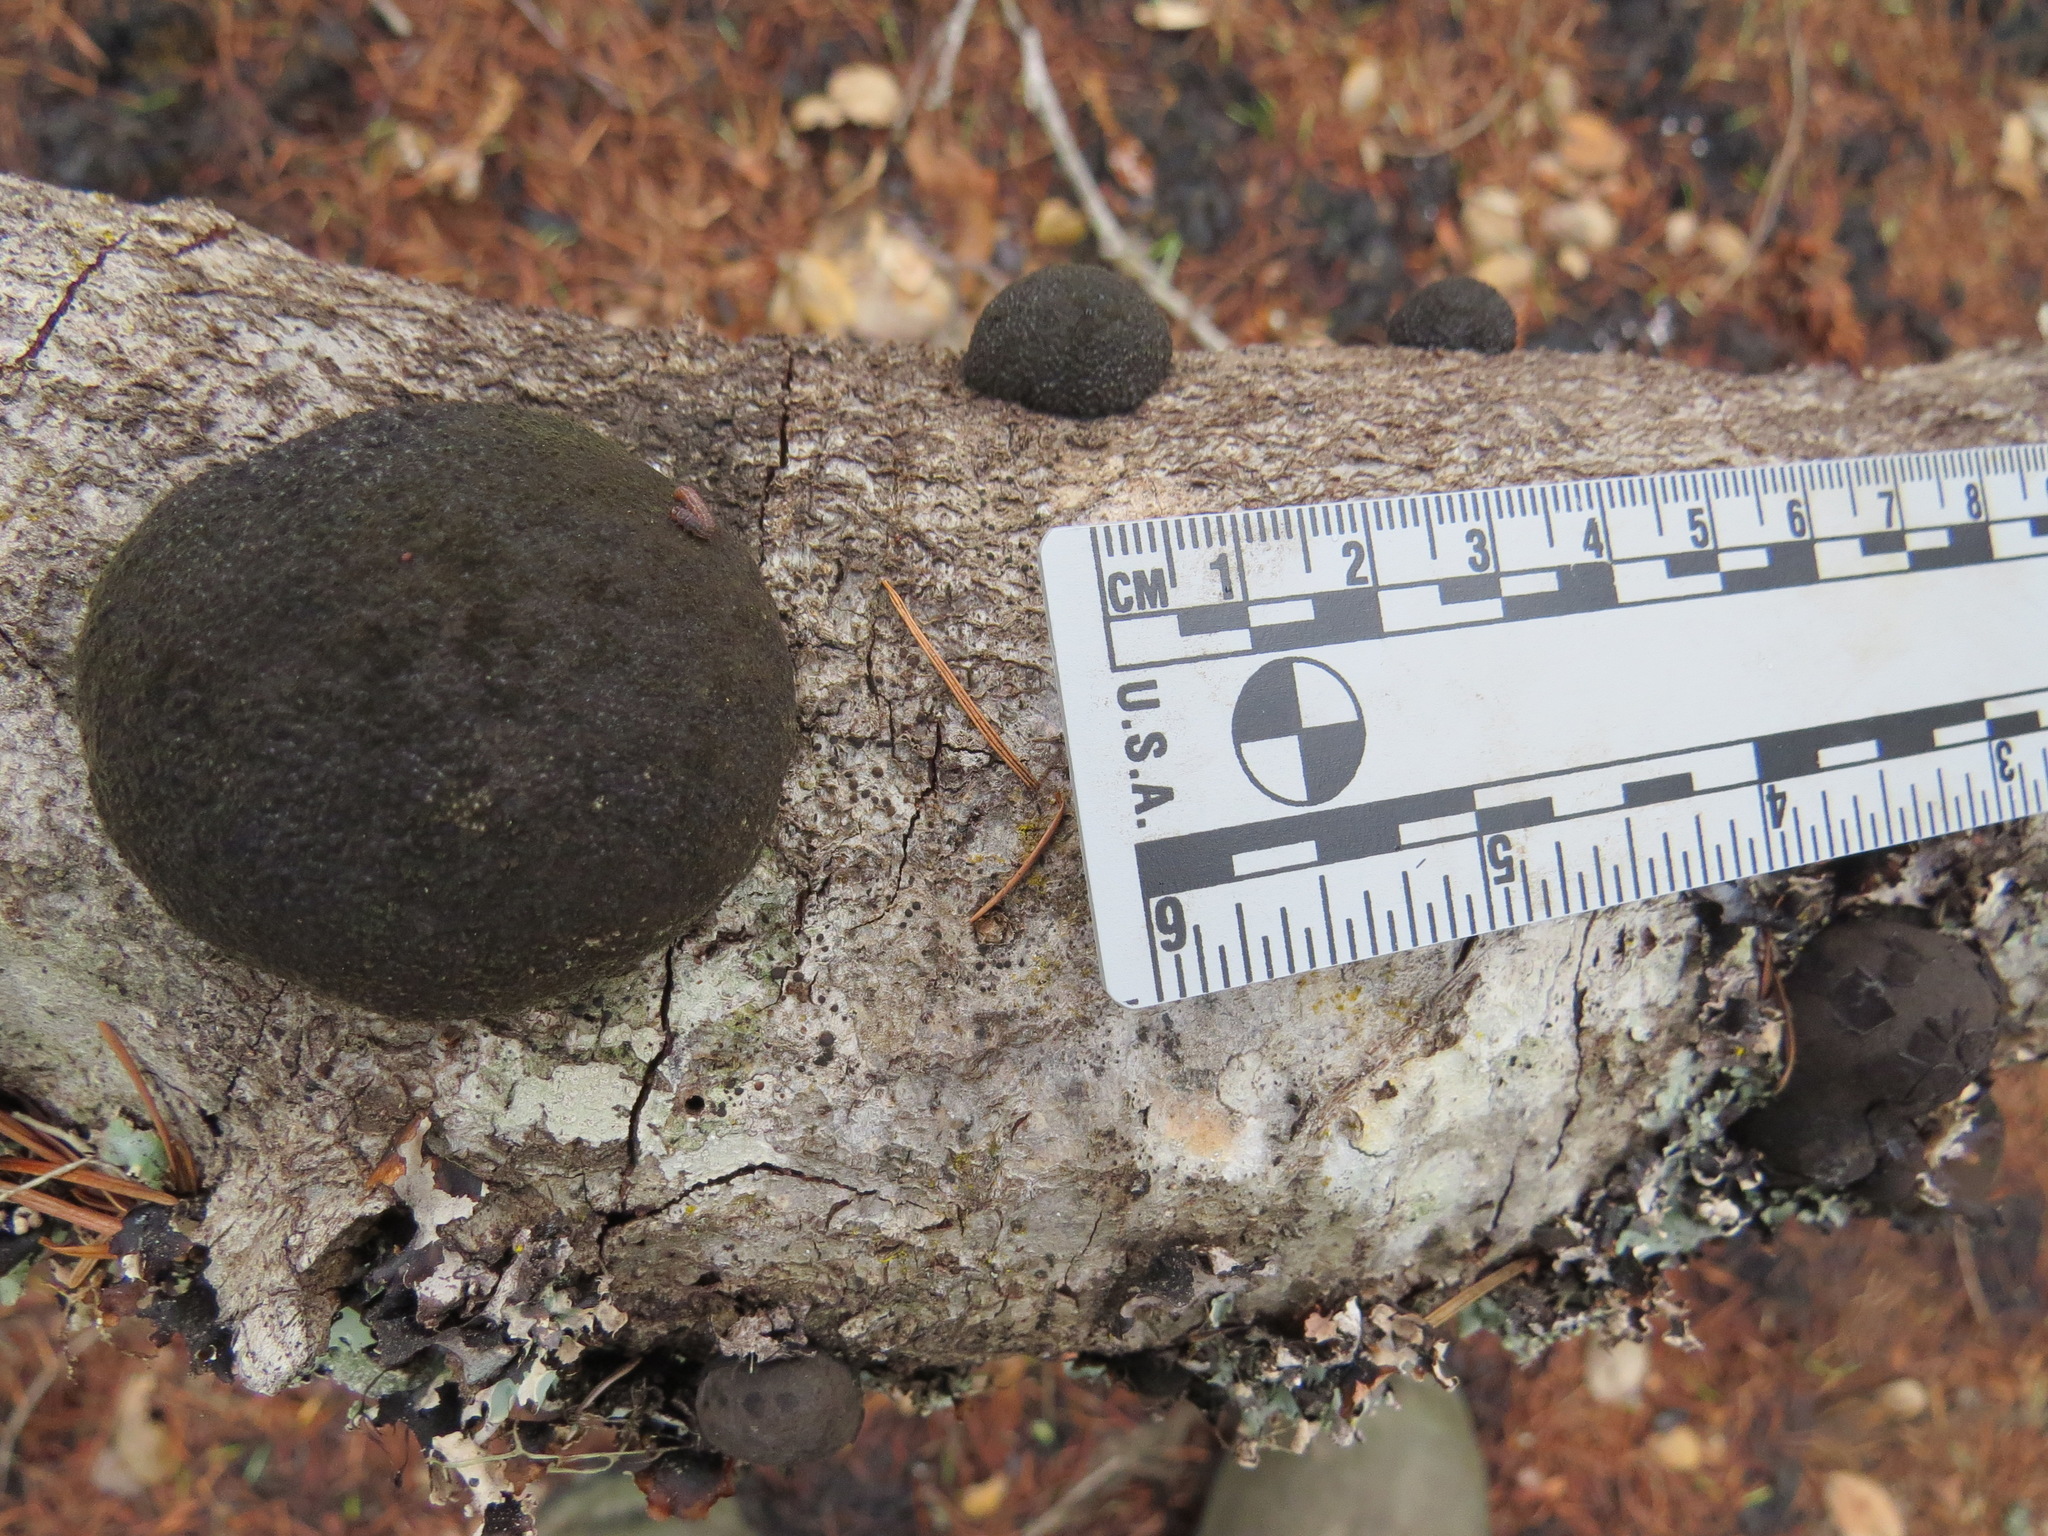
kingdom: Fungi
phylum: Ascomycota
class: Sordariomycetes
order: Xylariales
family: Hypoxylaceae
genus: Annulohypoxylon
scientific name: Annulohypoxylon thouarsianum
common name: Cramp balls
